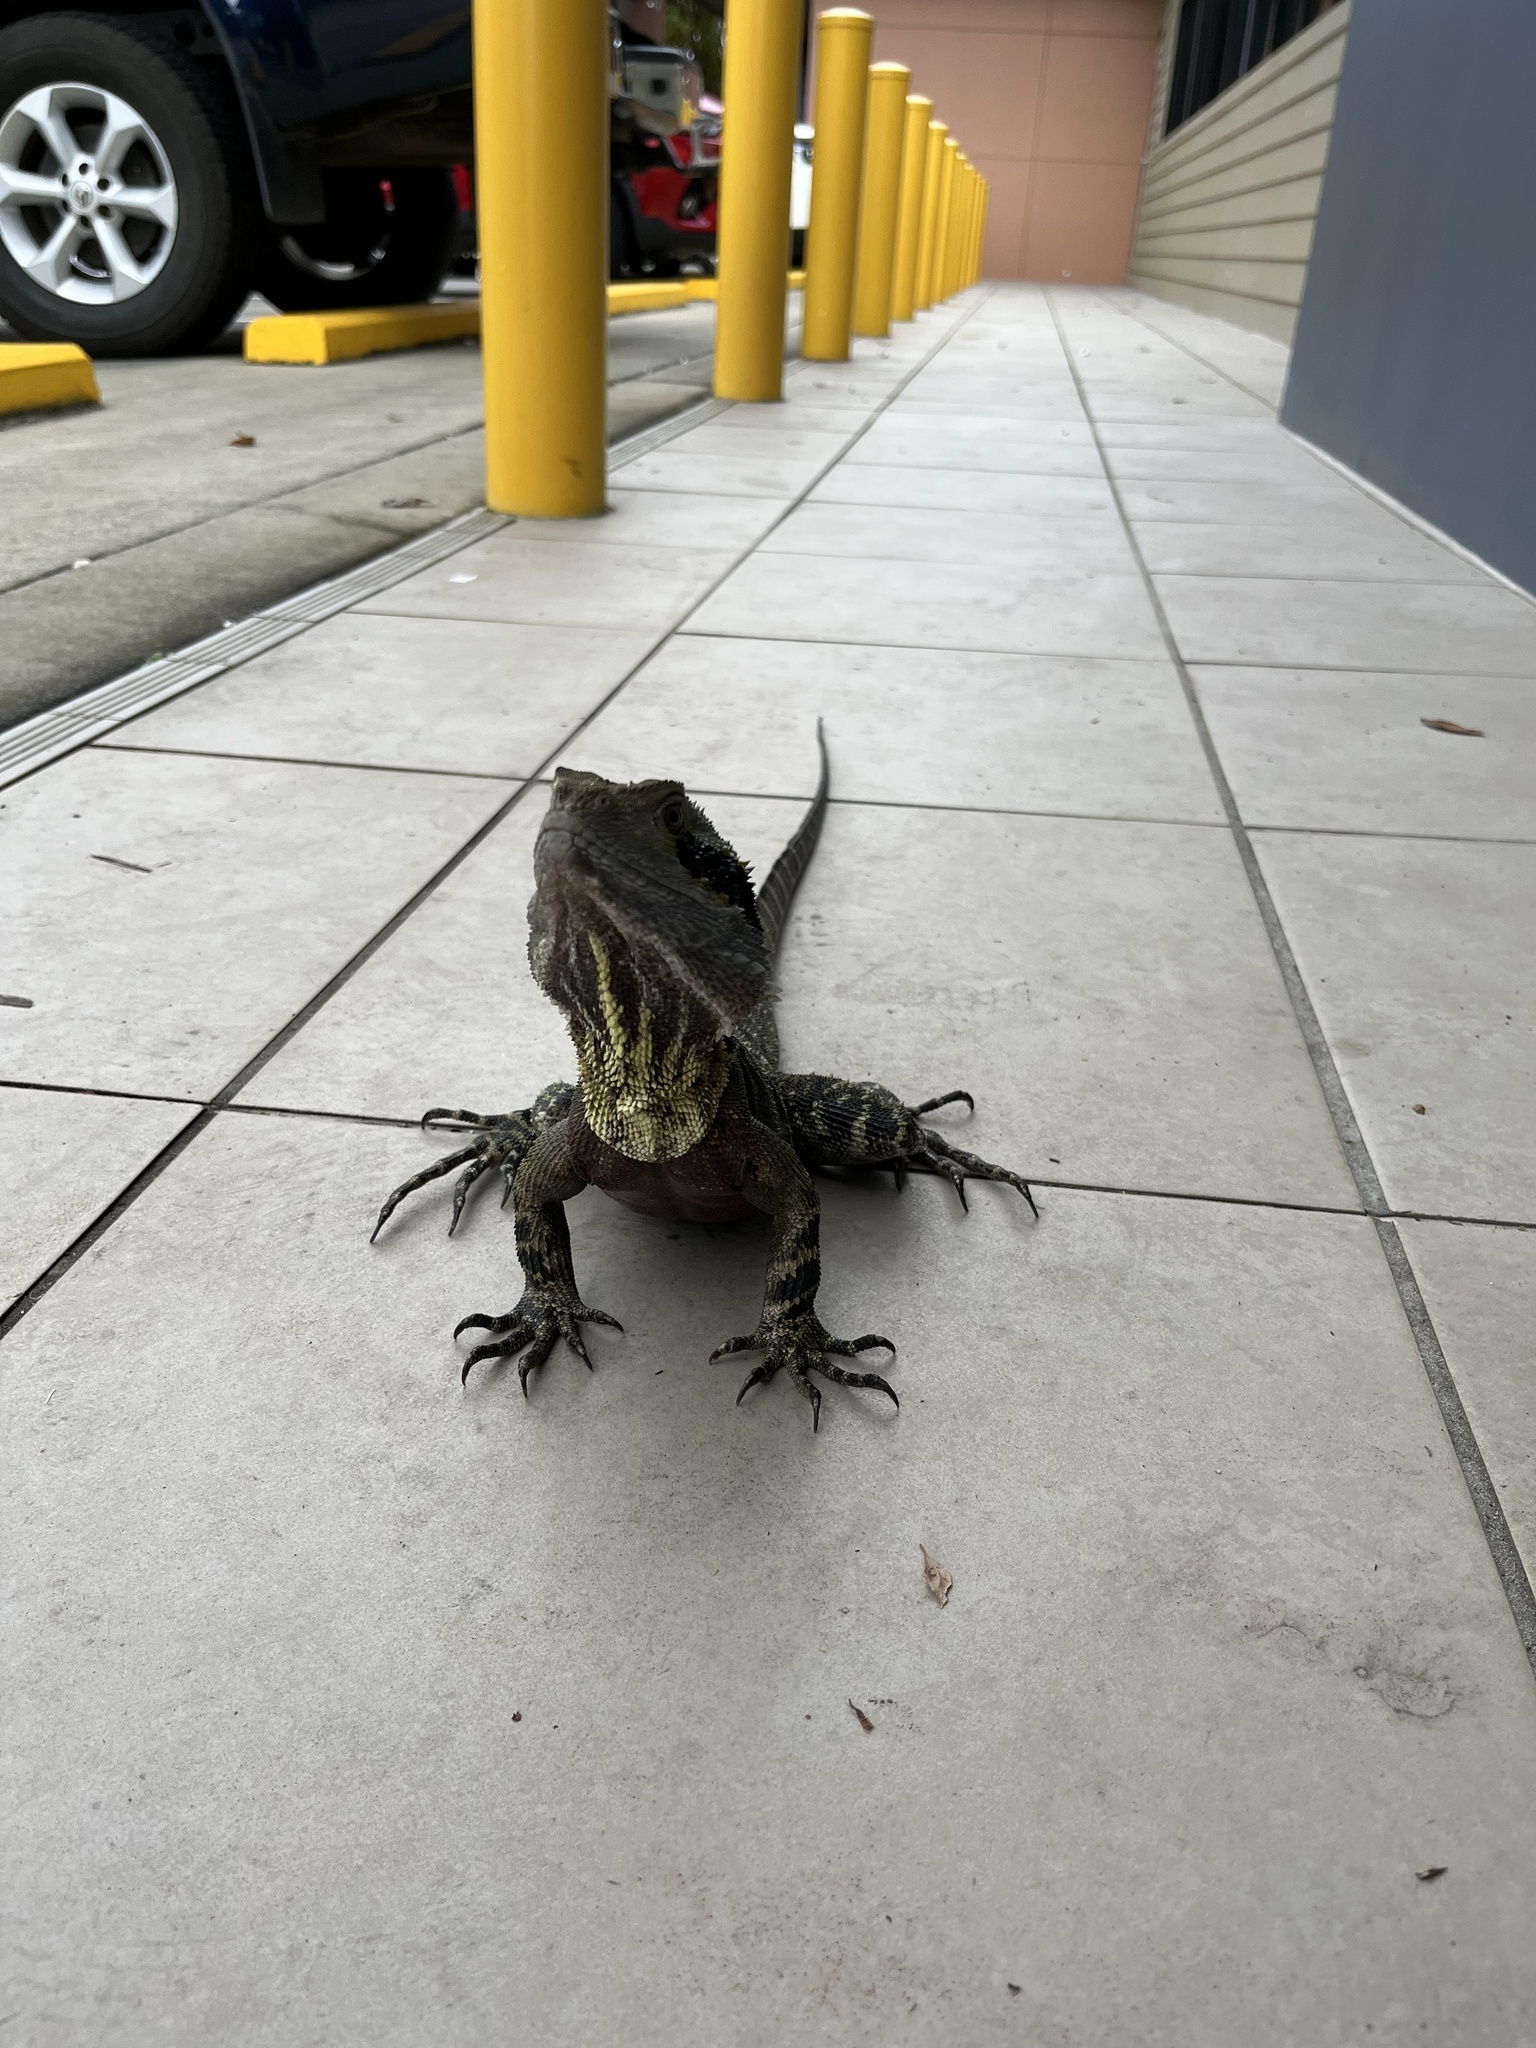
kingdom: Animalia
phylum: Chordata
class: Squamata
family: Agamidae
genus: Intellagama
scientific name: Intellagama lesueurii
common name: Eastern water dragon
